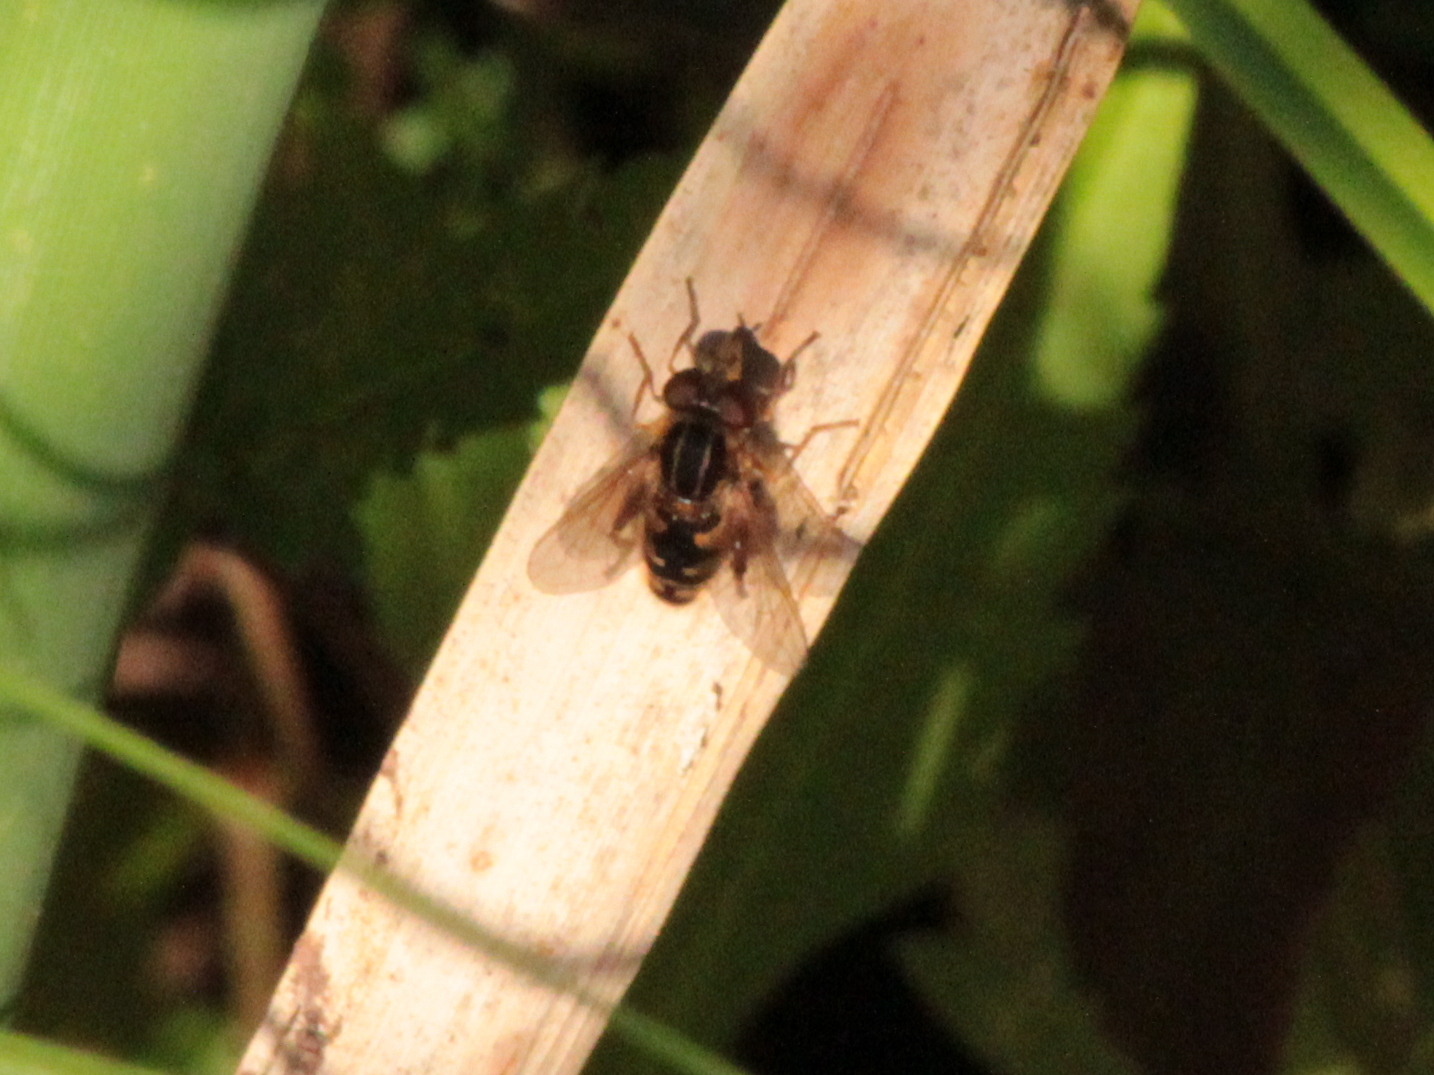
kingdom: Animalia
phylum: Arthropoda
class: Insecta
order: Diptera
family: Syrphidae
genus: Eurimyia
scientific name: Eurimyia stipatus
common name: Long-nosed swamp fly
